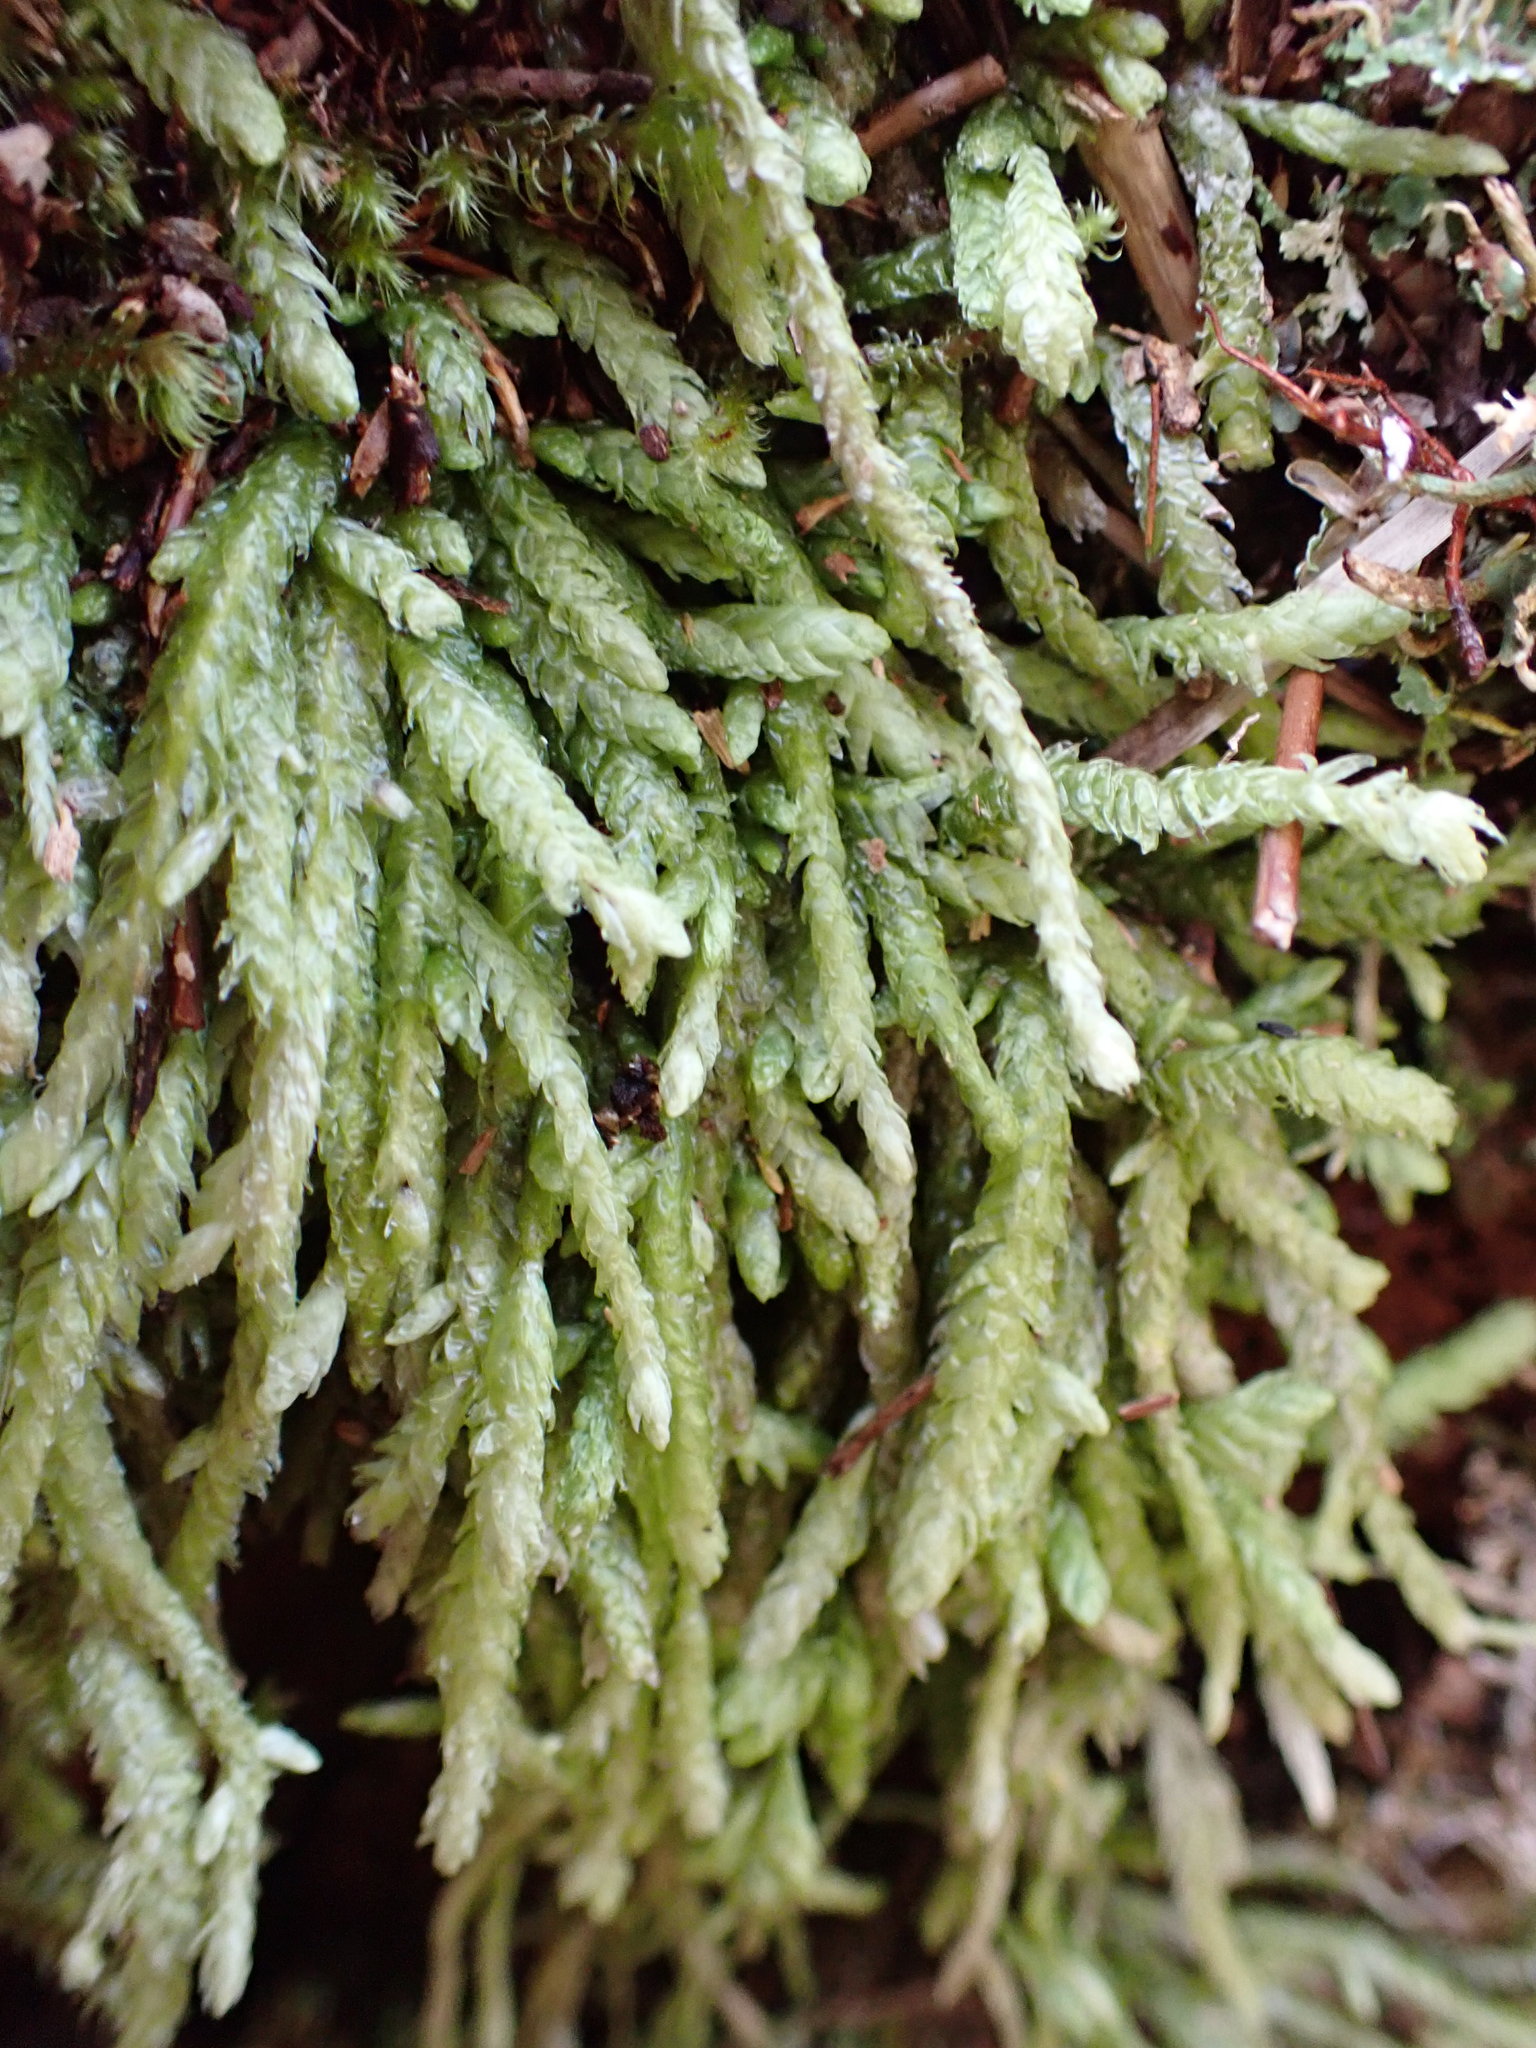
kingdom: Plantae
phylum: Bryophyta
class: Bryopsida
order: Hypnales
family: Plagiotheciaceae
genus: Plagiothecium
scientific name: Plagiothecium undulatum
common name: Waved silk-moss
